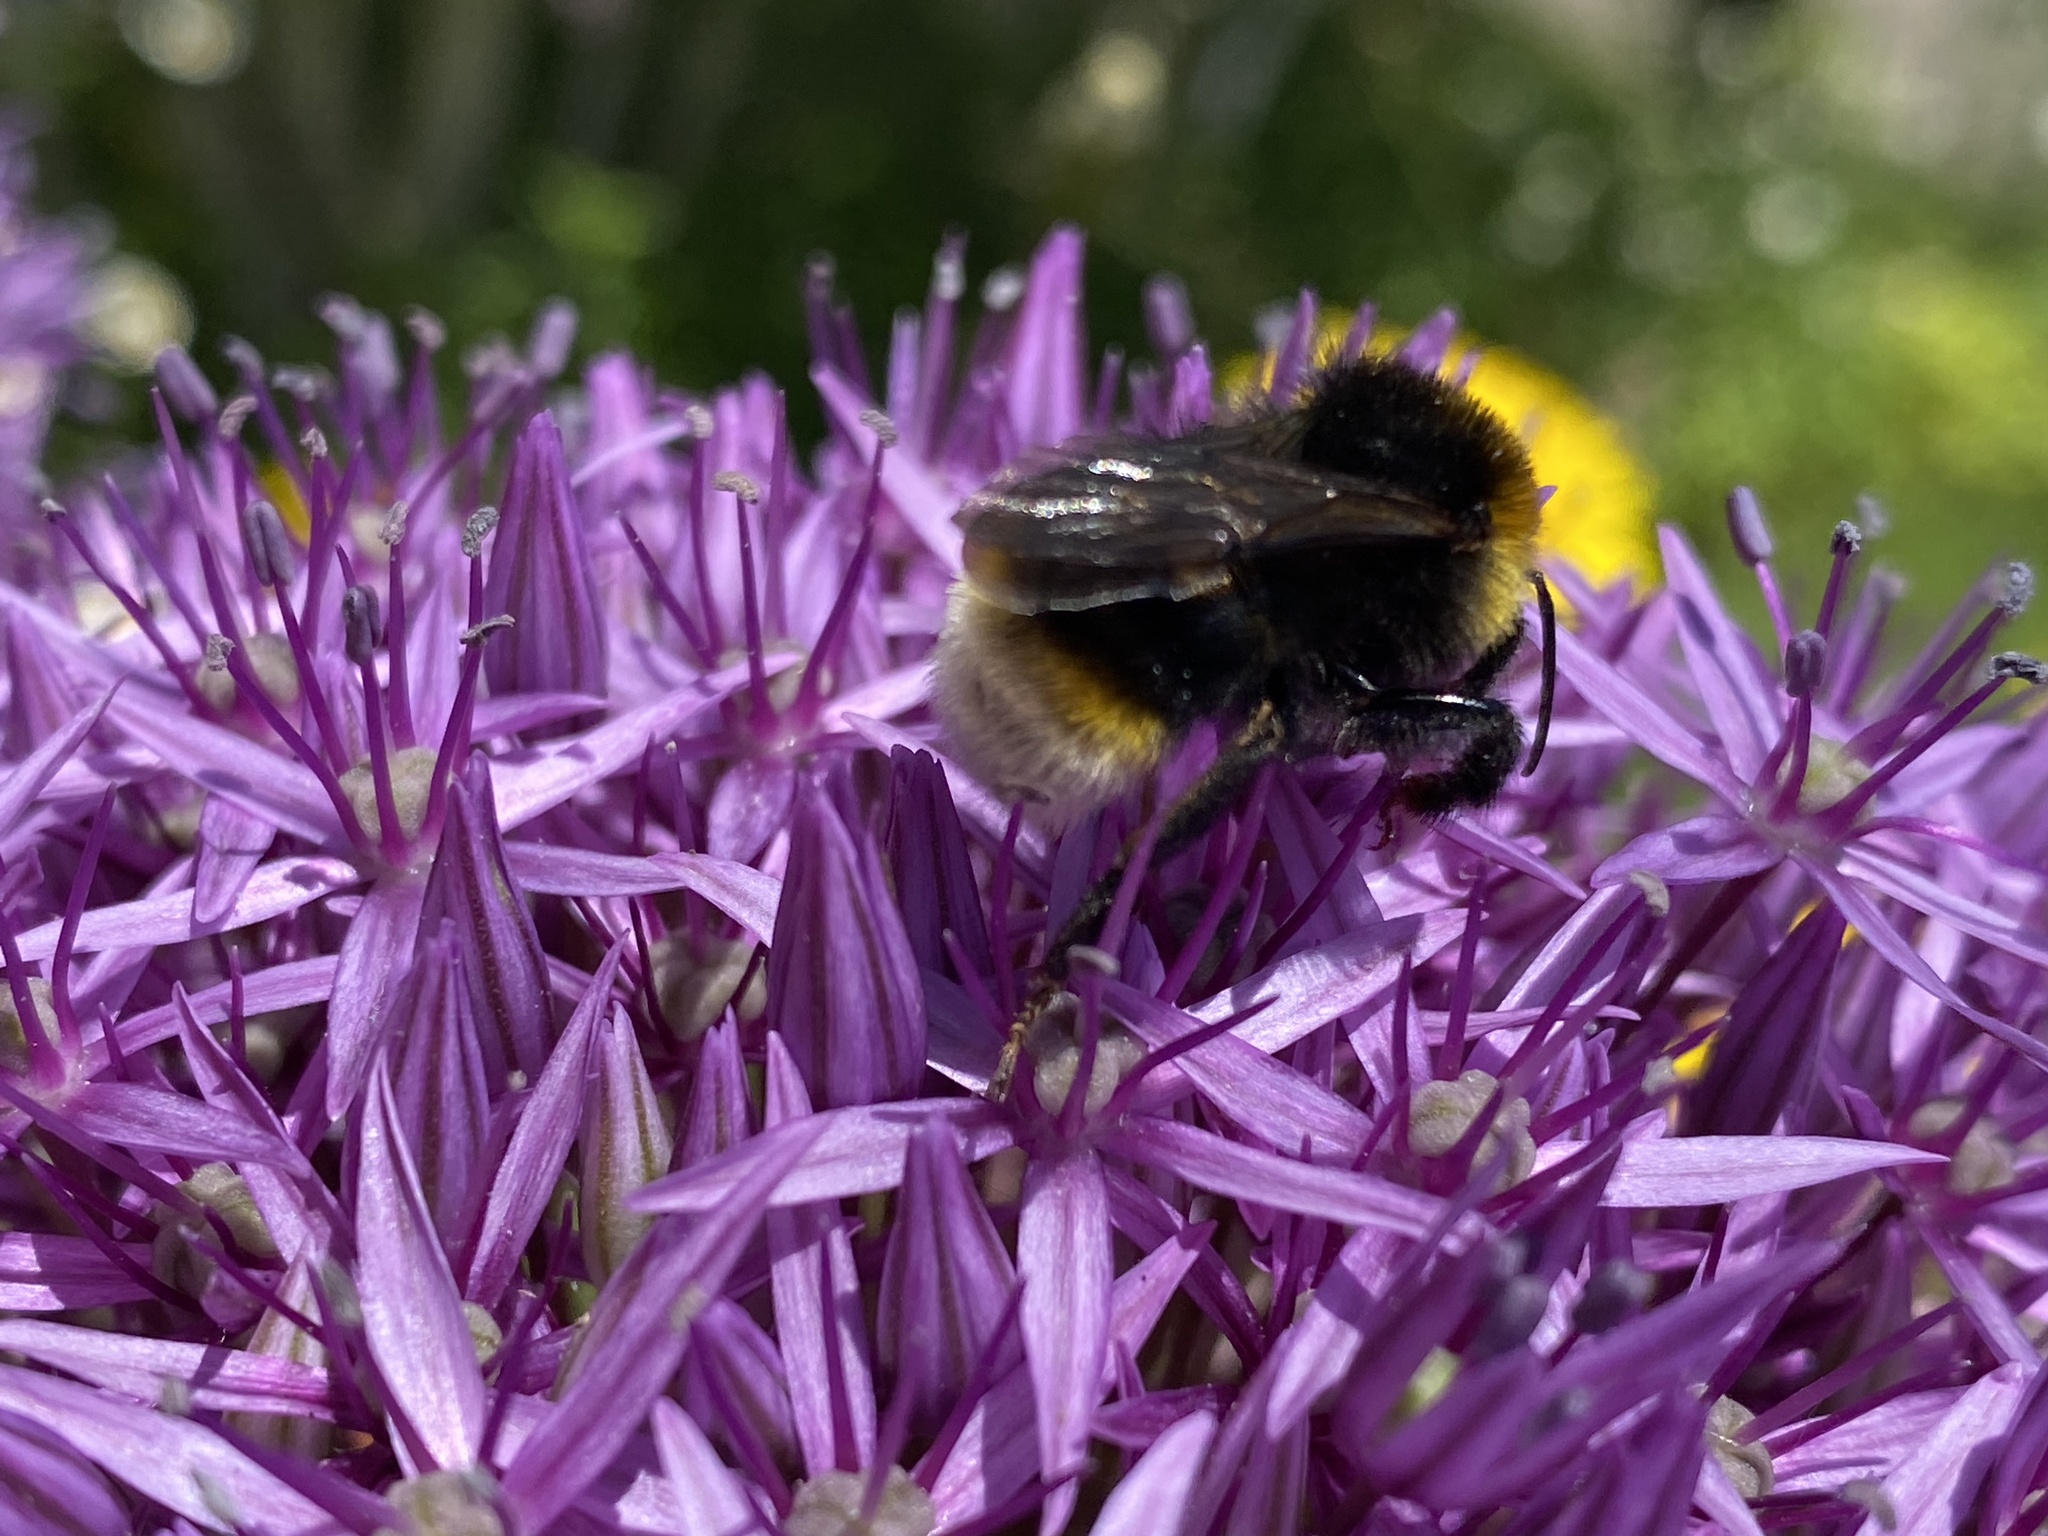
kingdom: Animalia
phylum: Arthropoda
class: Insecta
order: Hymenoptera
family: Apidae
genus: Bombus
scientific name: Bombus vestalis
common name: Vestal cuckoo bee
